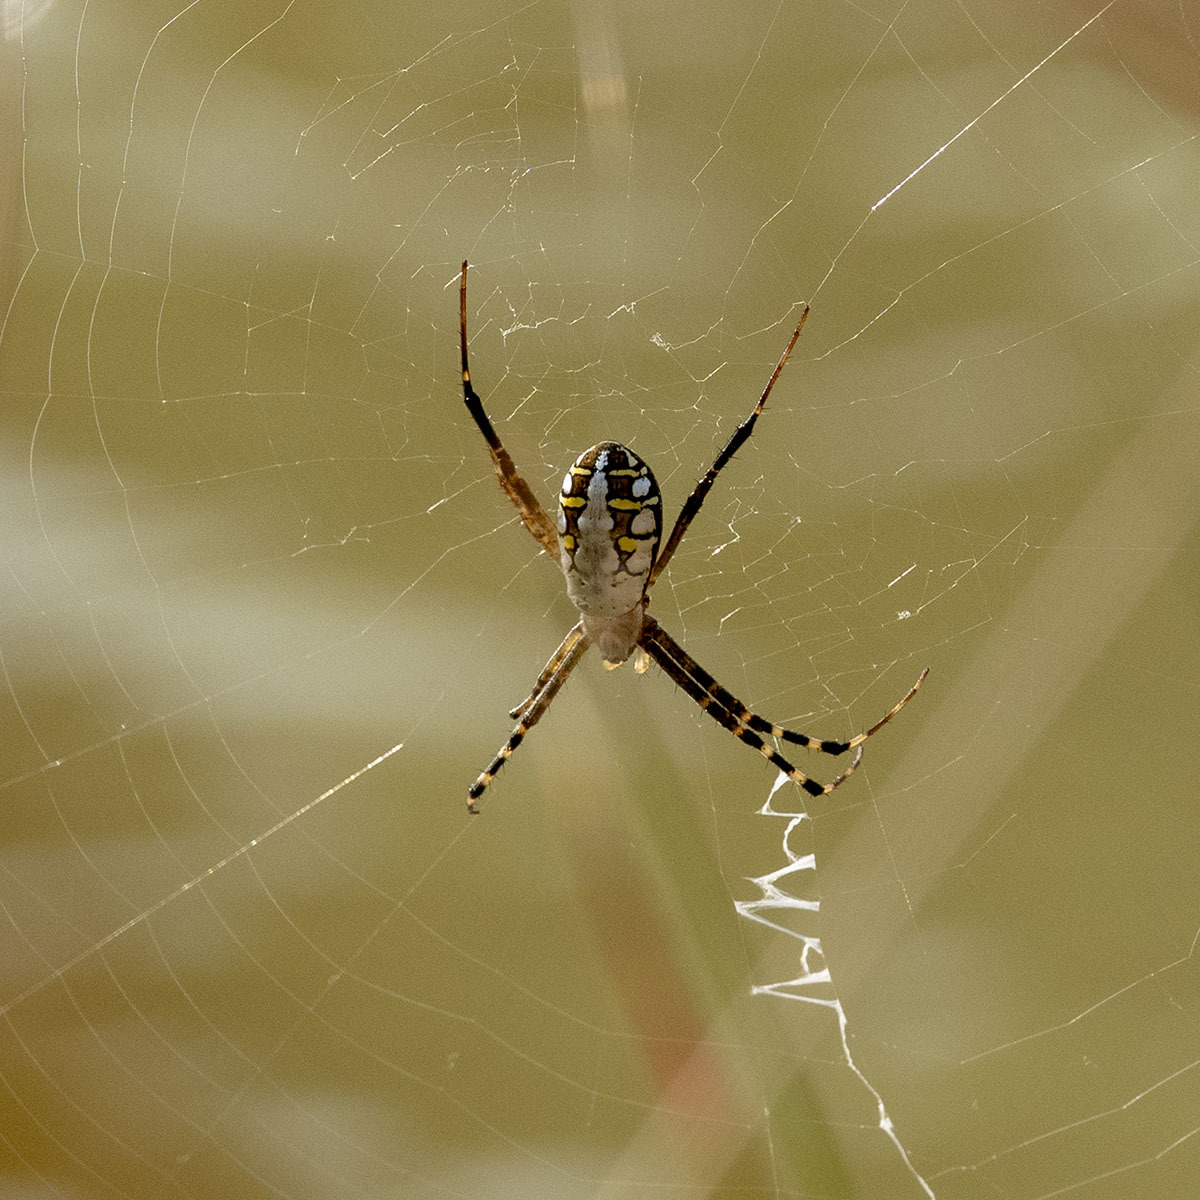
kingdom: Animalia
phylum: Arthropoda
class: Arachnida
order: Araneae
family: Araneidae
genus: Argiope
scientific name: Argiope catenulata
